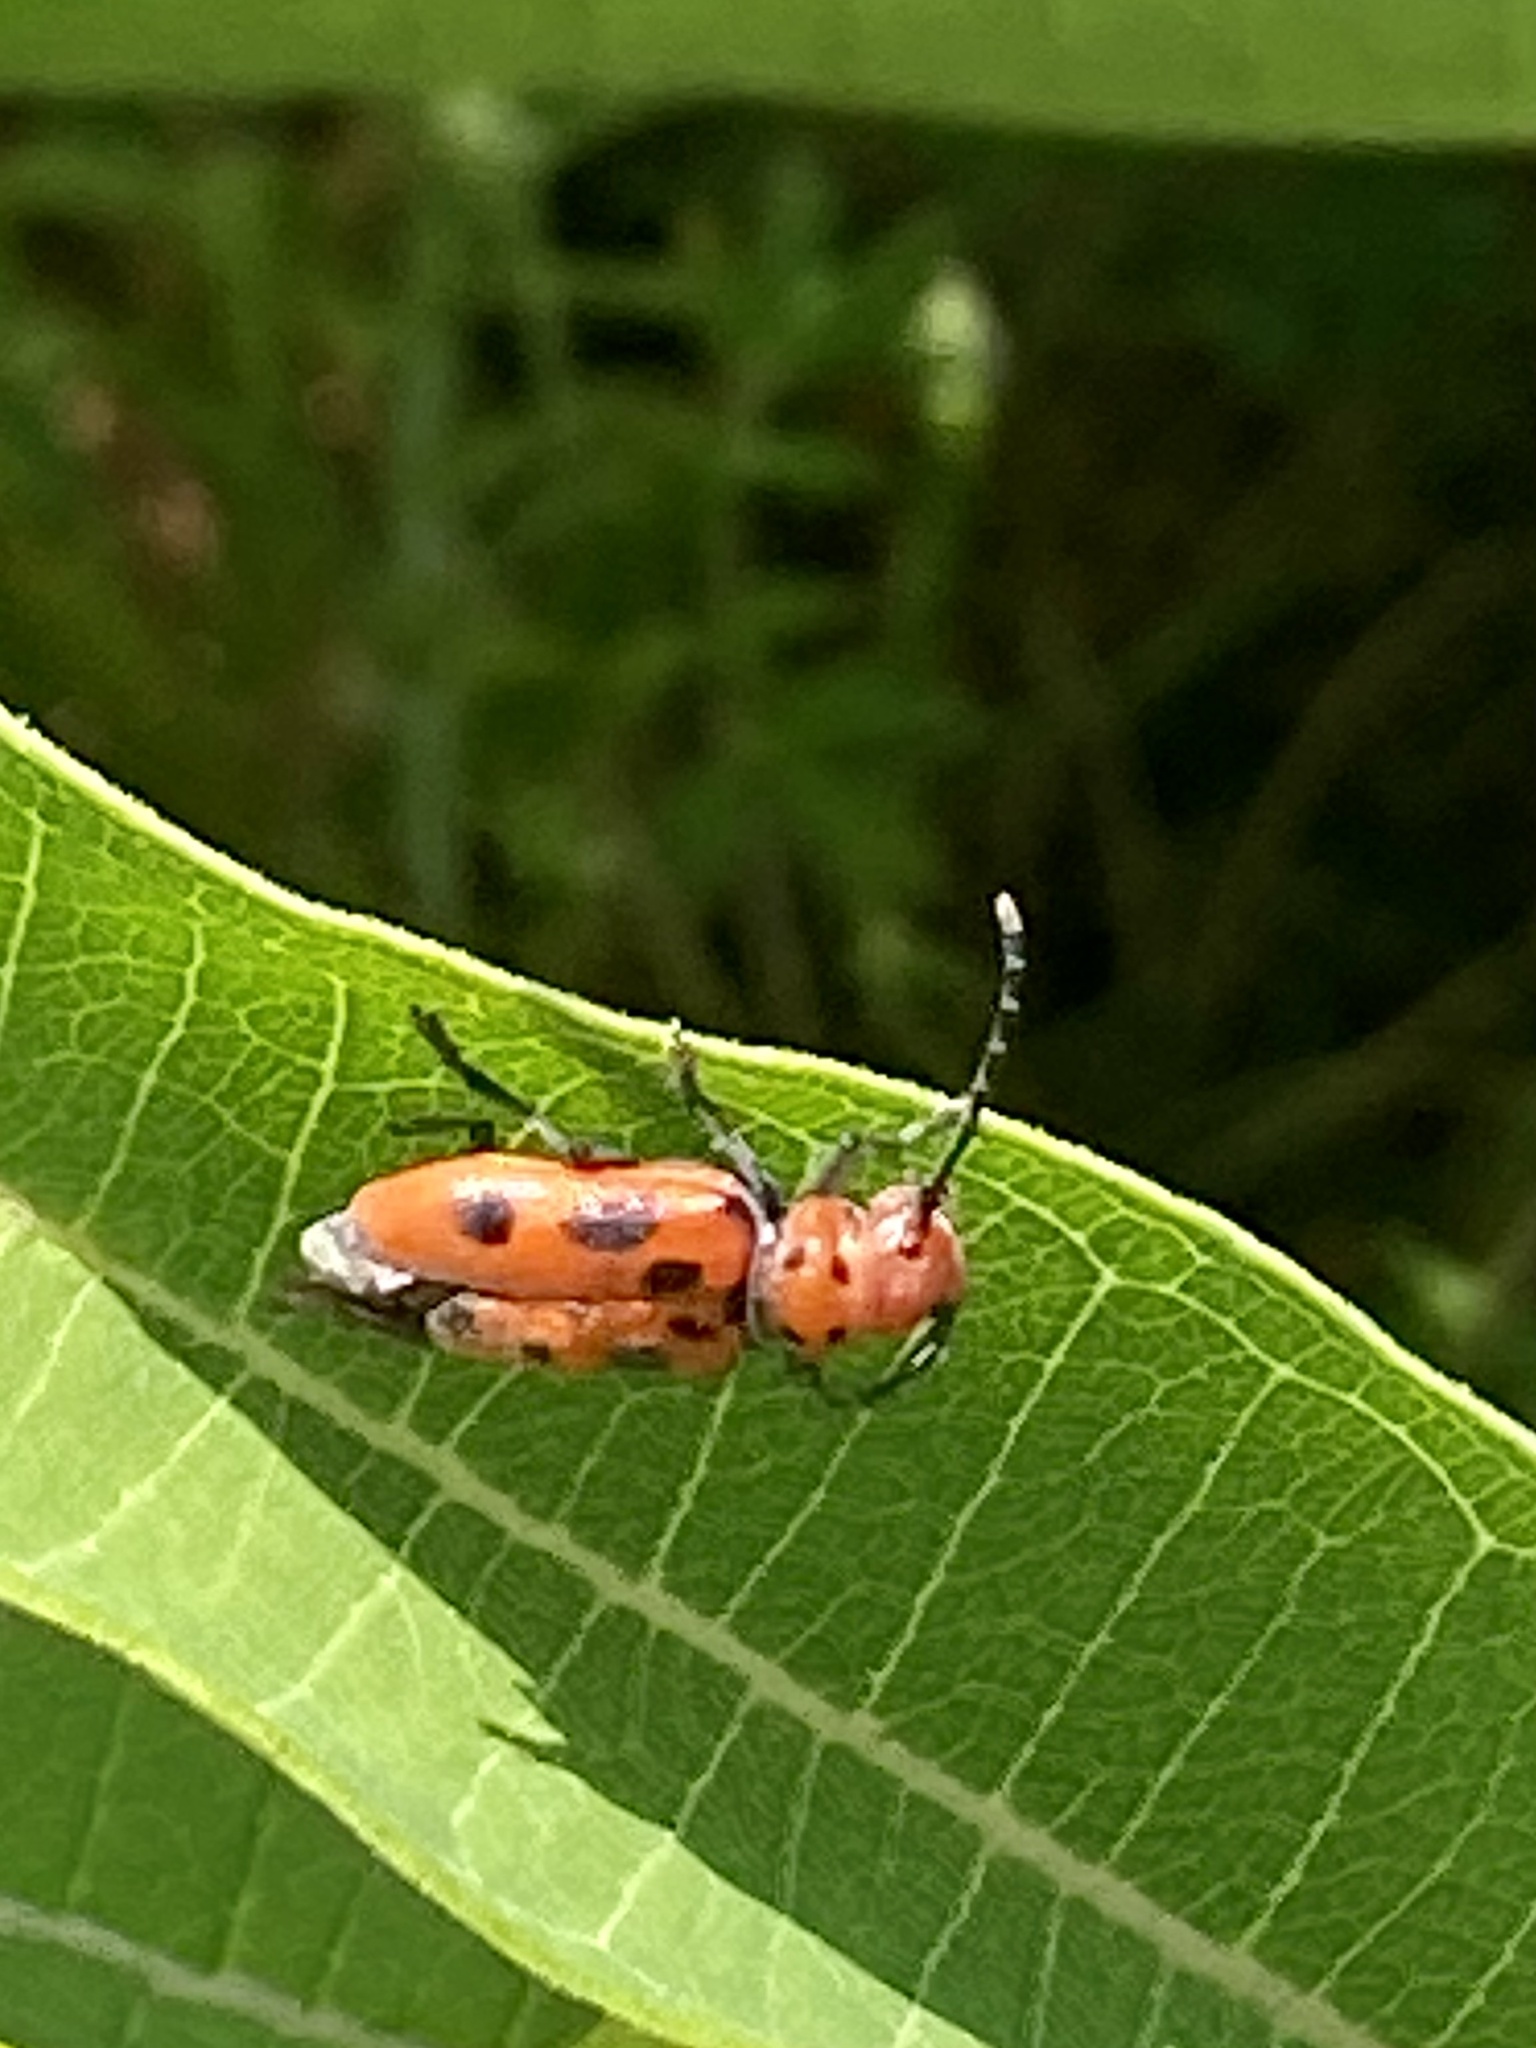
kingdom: Animalia
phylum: Arthropoda
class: Insecta
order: Coleoptera
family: Cerambycidae
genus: Tetraopes
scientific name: Tetraopes tetrophthalmus
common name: Red milkweed beetle
